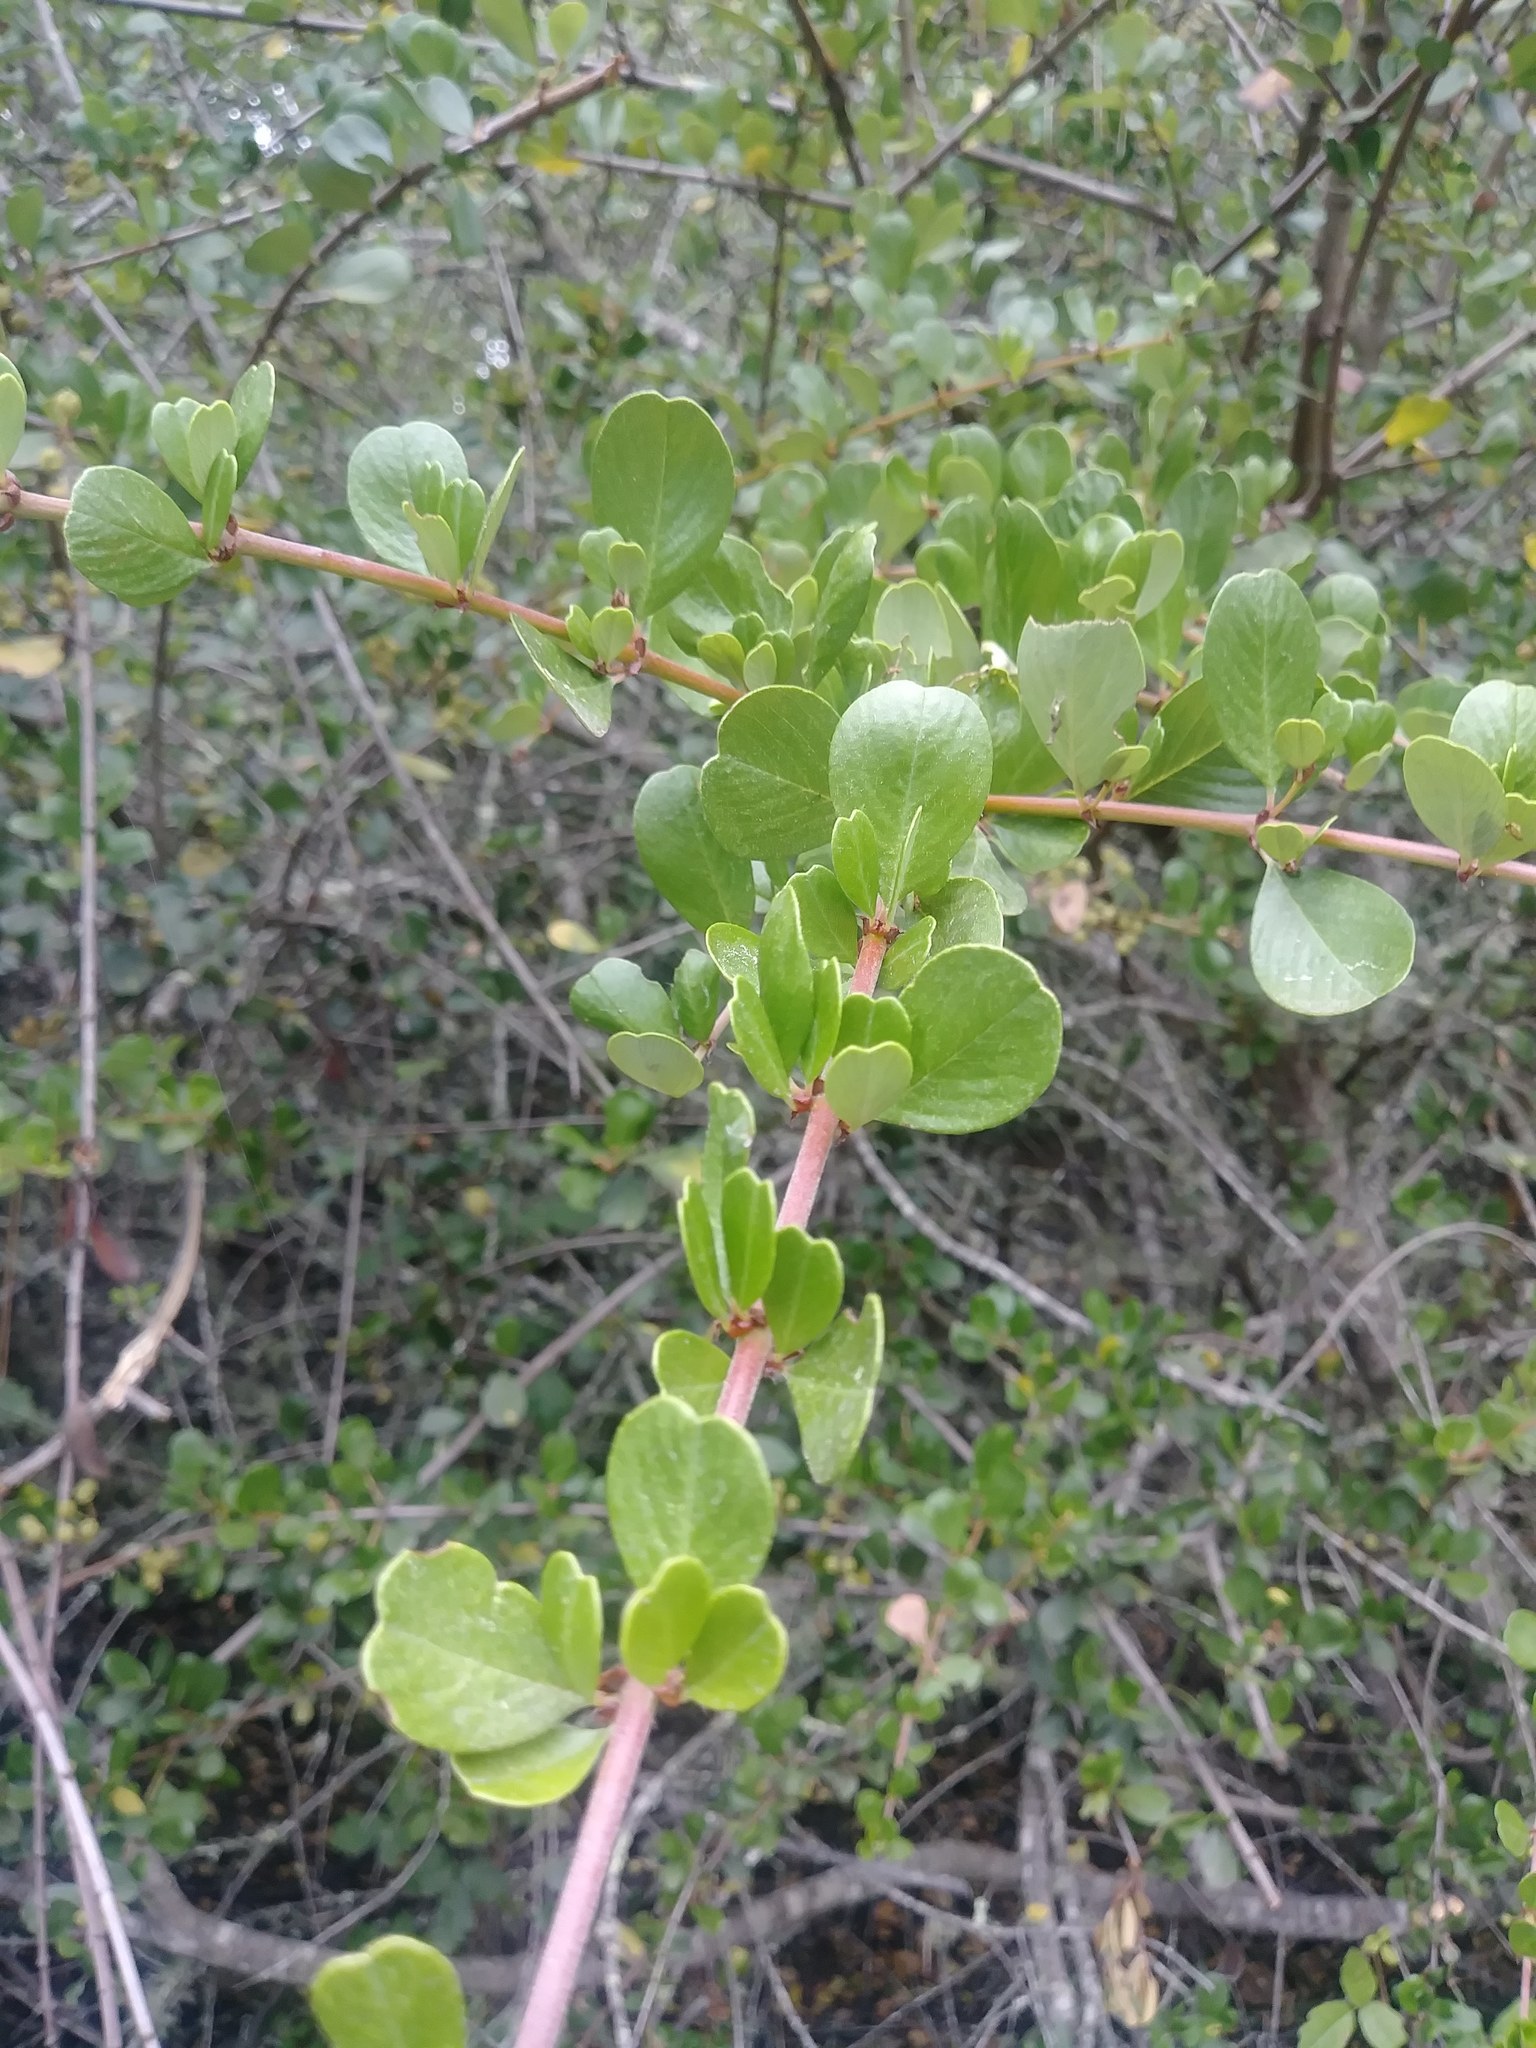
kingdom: Plantae
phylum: Tracheophyta
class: Magnoliopsida
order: Rosales
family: Rhamnaceae
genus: Ceanothus
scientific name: Ceanothus cuneatus
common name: Cuneate ceanothus
